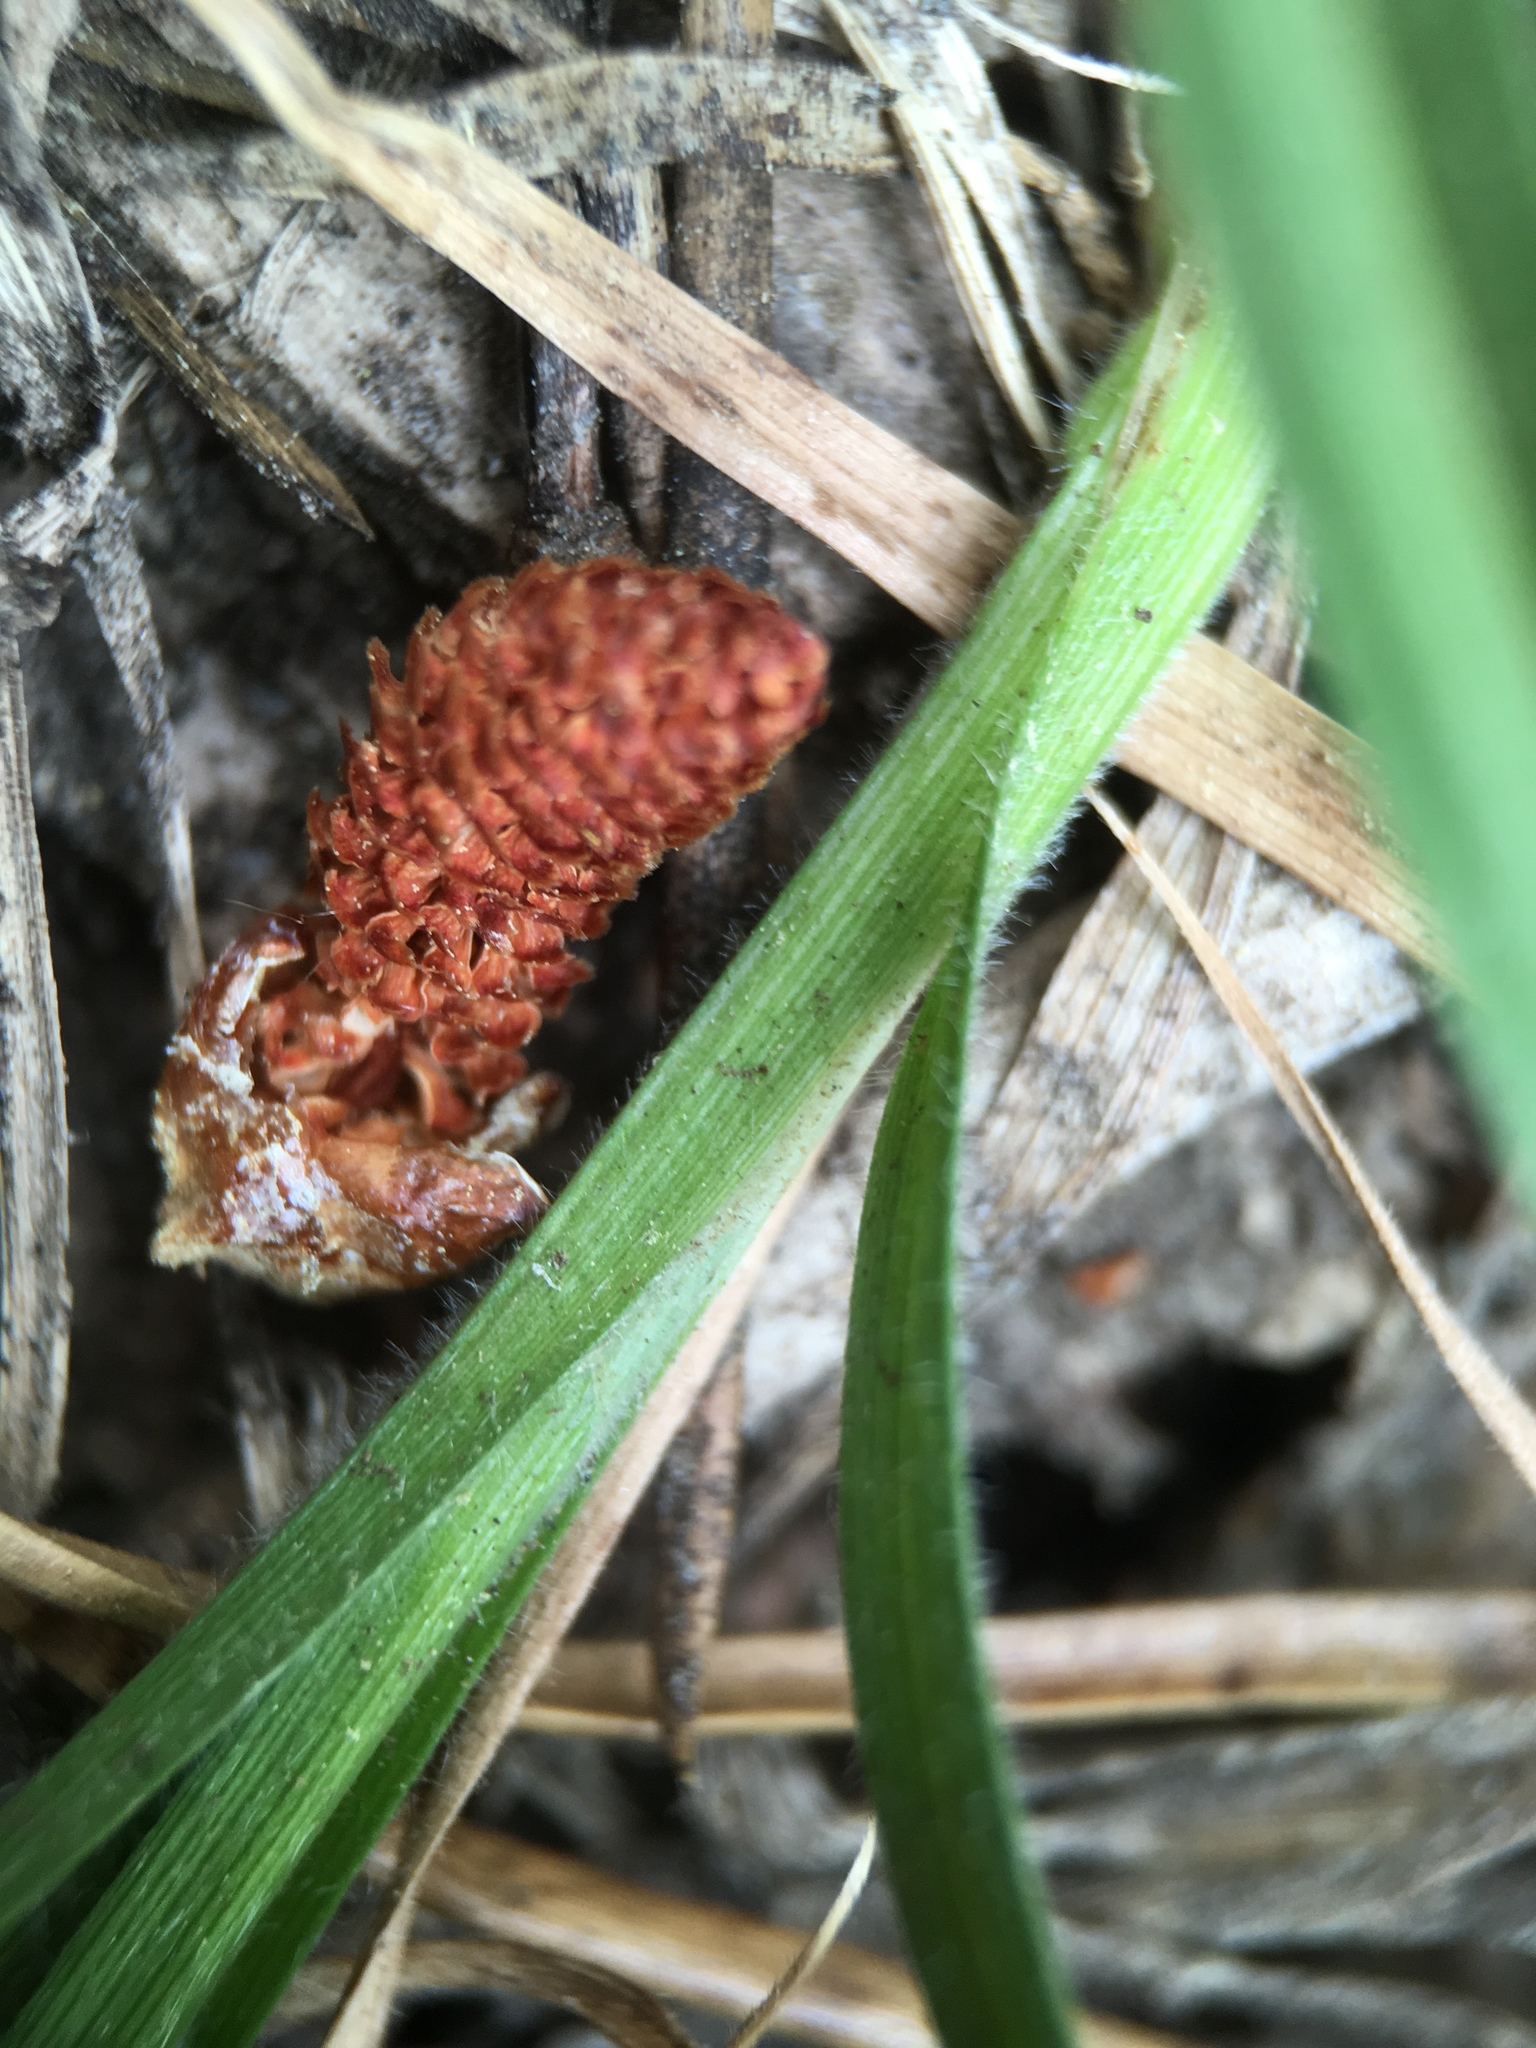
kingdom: Plantae
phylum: Tracheophyta
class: Liliopsida
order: Poales
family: Cyperaceae
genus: Carex
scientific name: Carex whitneyi
